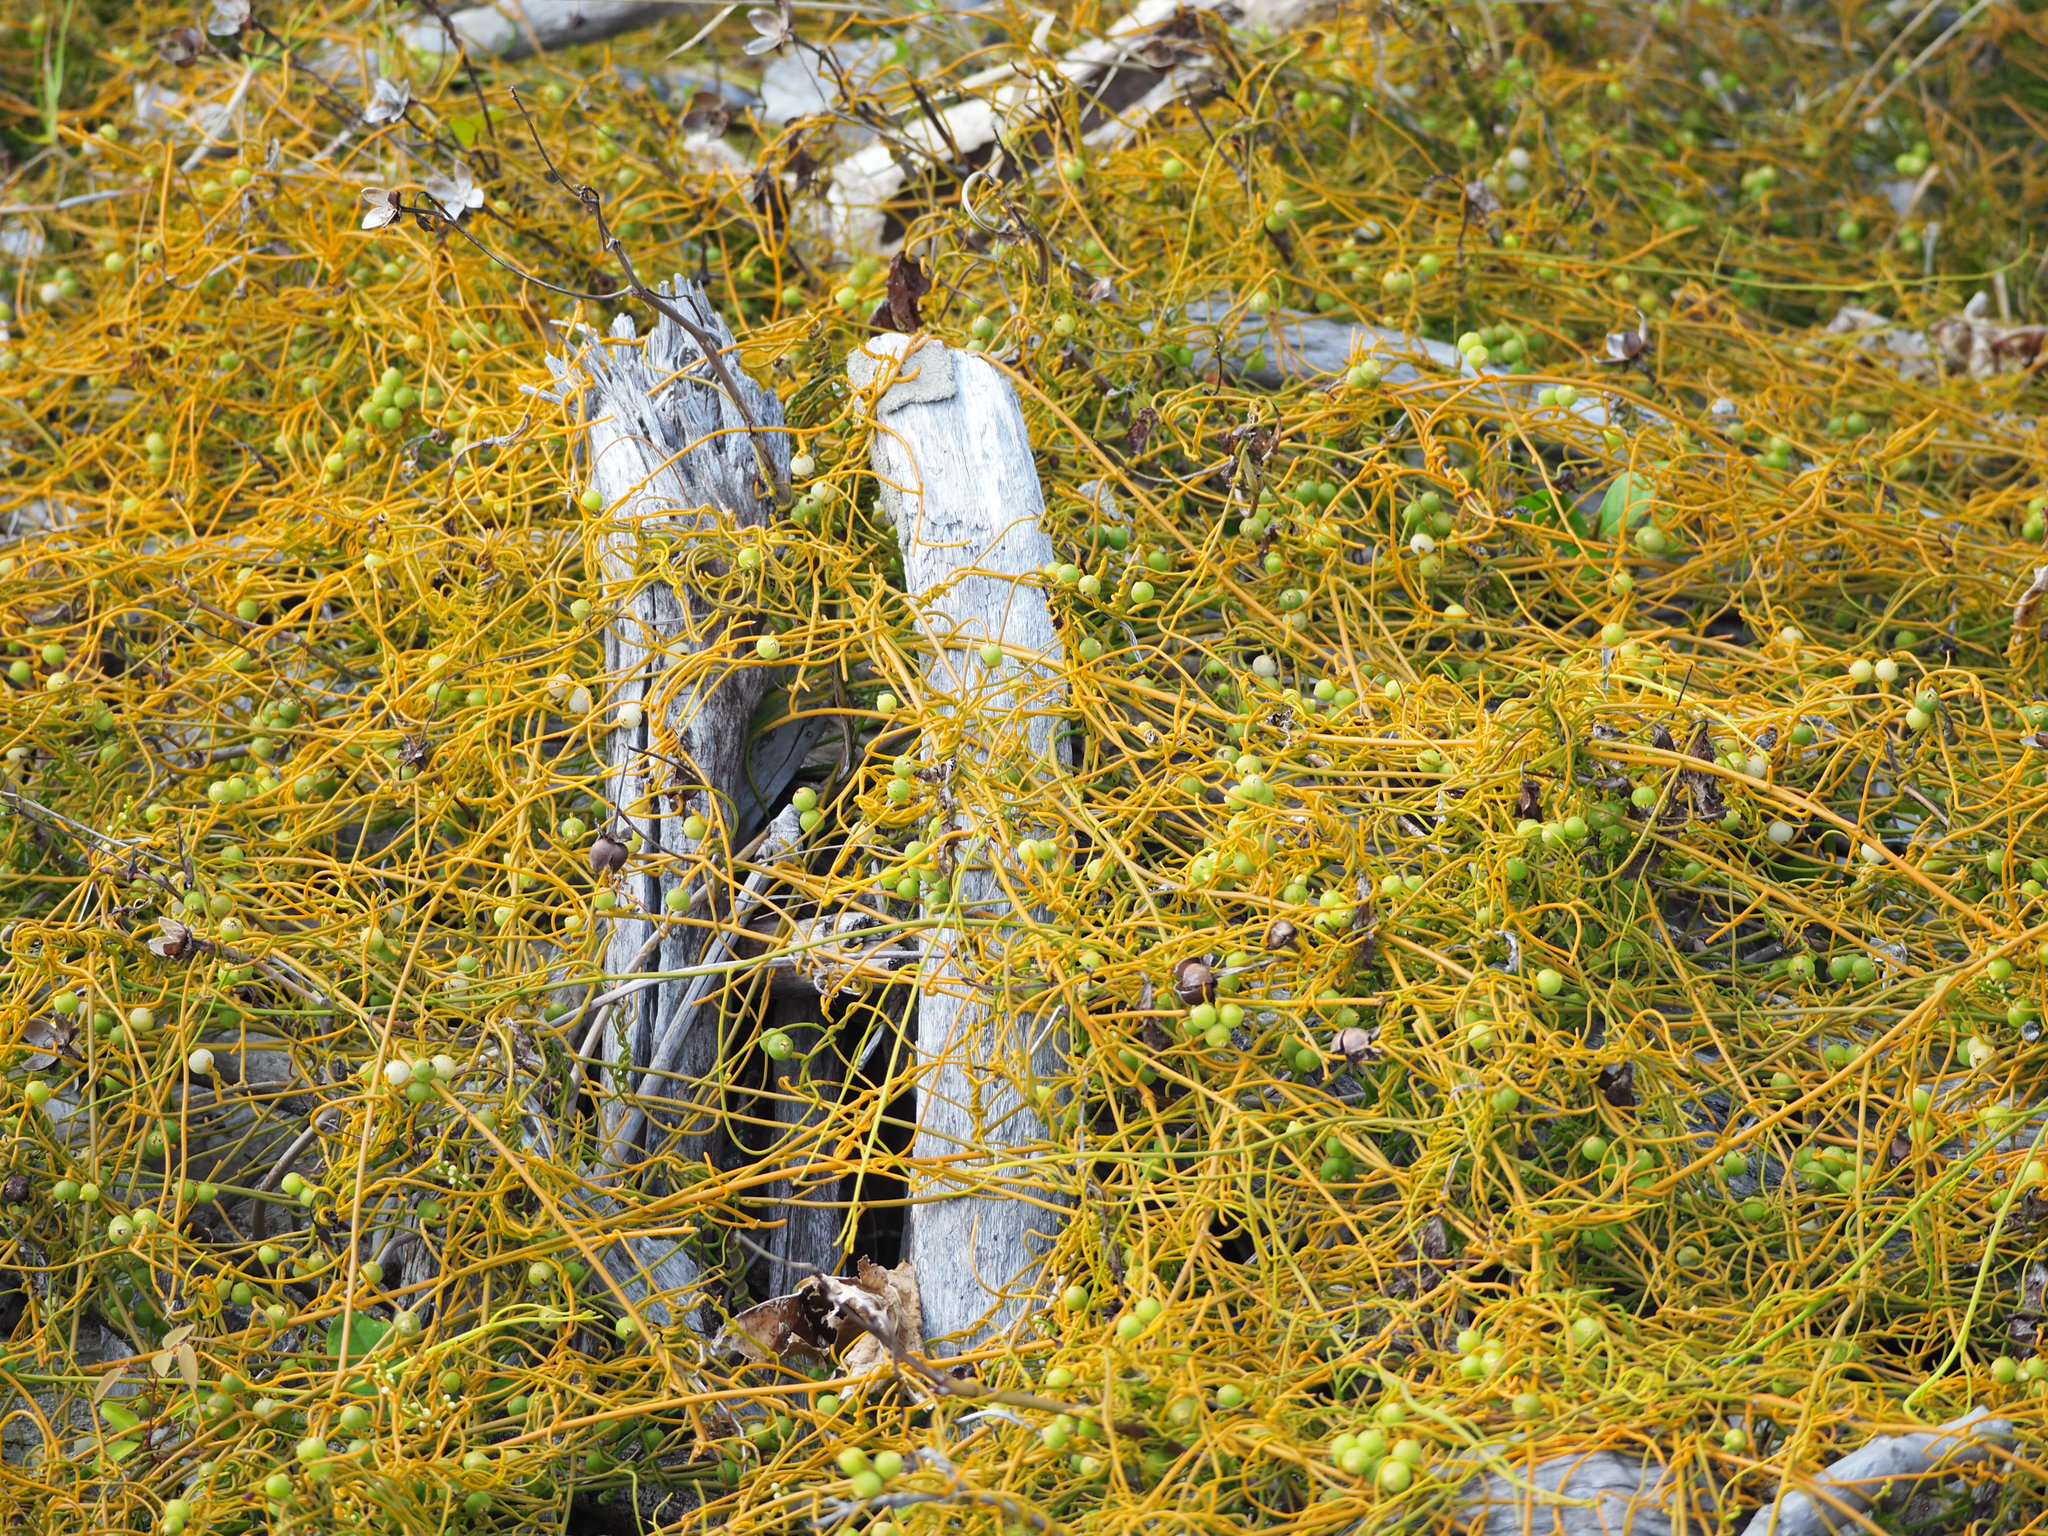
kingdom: Plantae
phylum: Tracheophyta
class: Magnoliopsida
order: Laurales
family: Lauraceae
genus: Cassytha
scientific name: Cassytha filiformis
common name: Dodder-laurel
